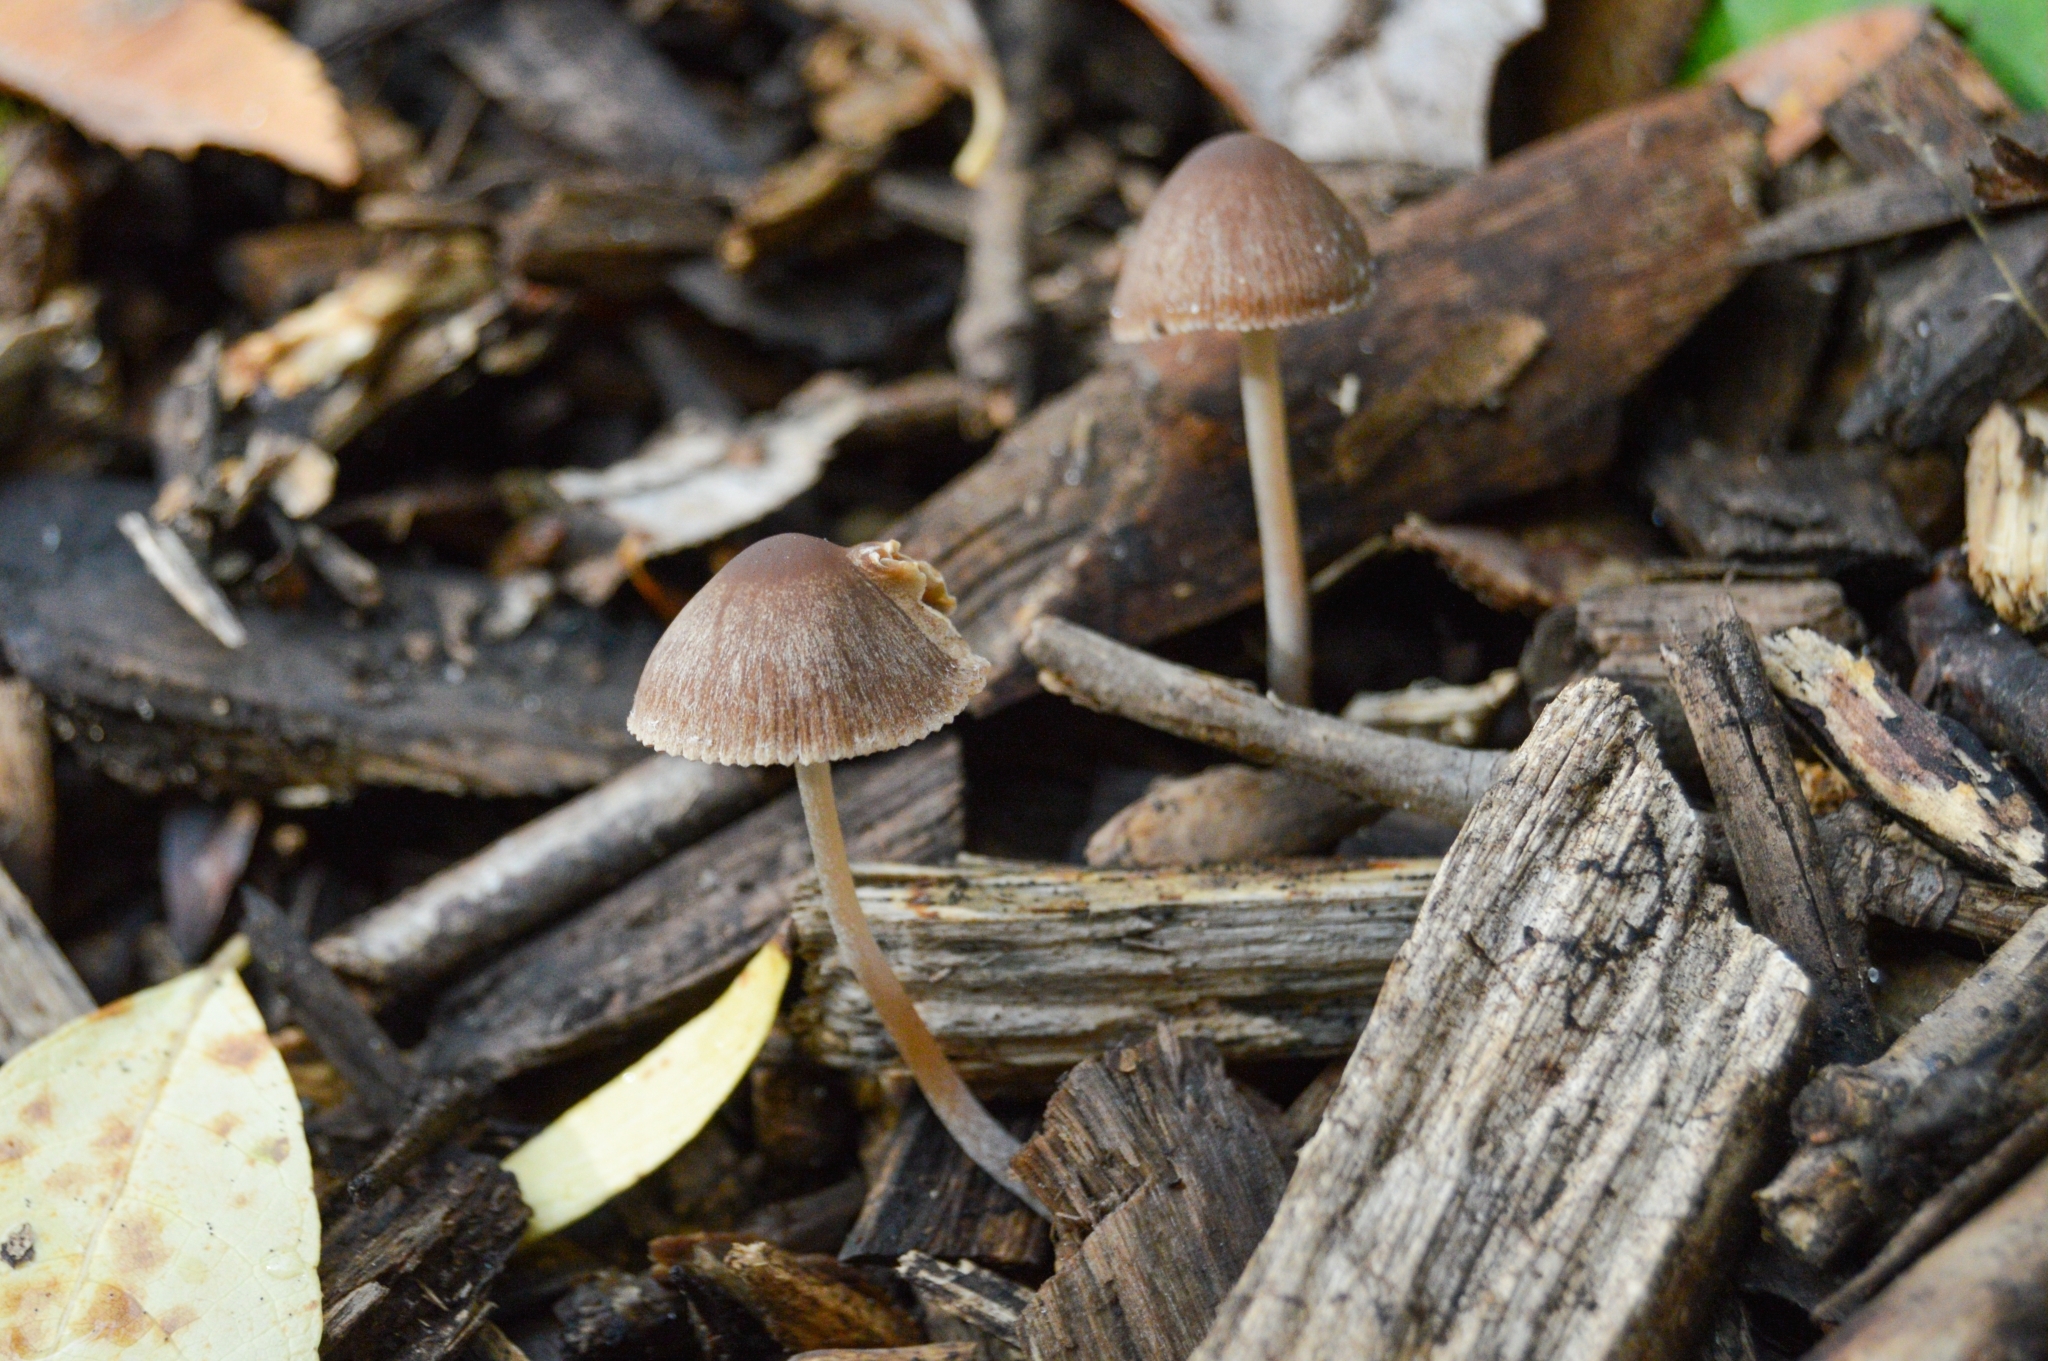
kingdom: Fungi
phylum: Basidiomycota
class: Agaricomycetes
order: Agaricales
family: Psathyrellaceae
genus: Psathyrella
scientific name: Psathyrella corrugis
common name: Red edge brittlestem
